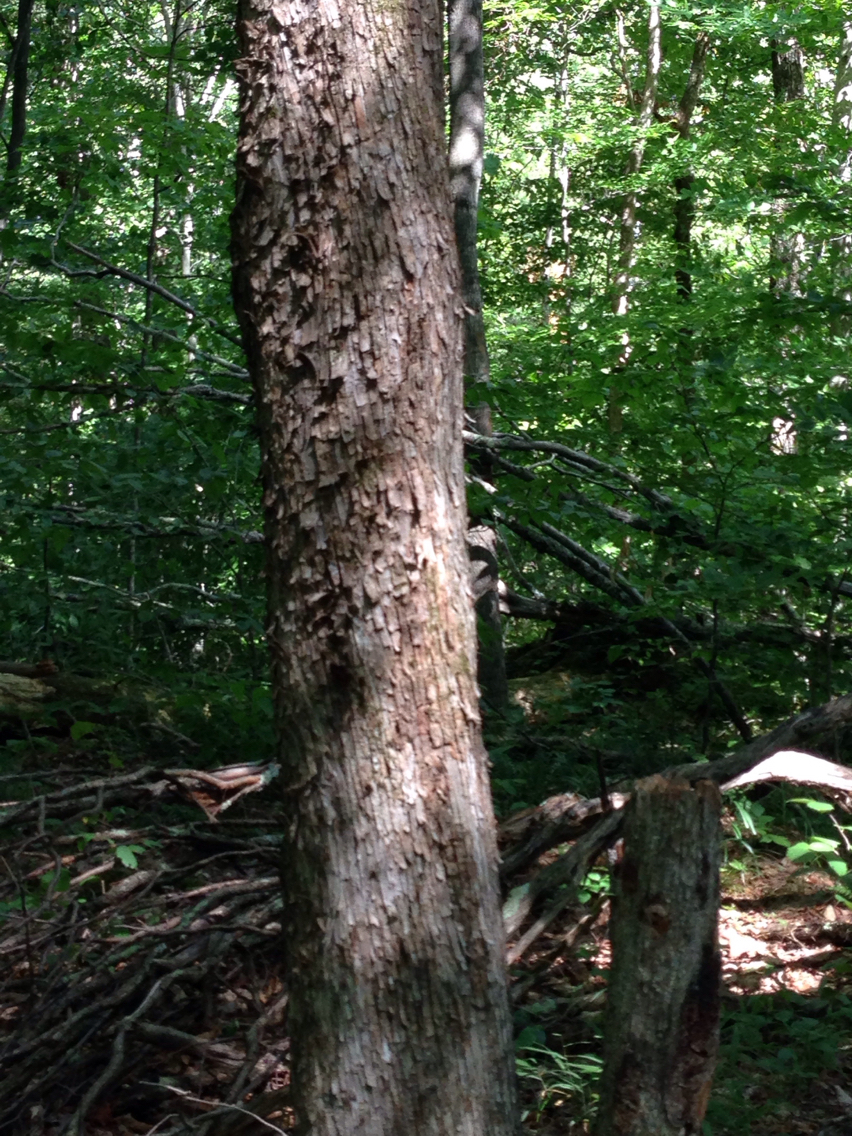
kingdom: Plantae
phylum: Tracheophyta
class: Magnoliopsida
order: Fagales
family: Betulaceae
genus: Ostrya
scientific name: Ostrya virginiana
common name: Ironwood
